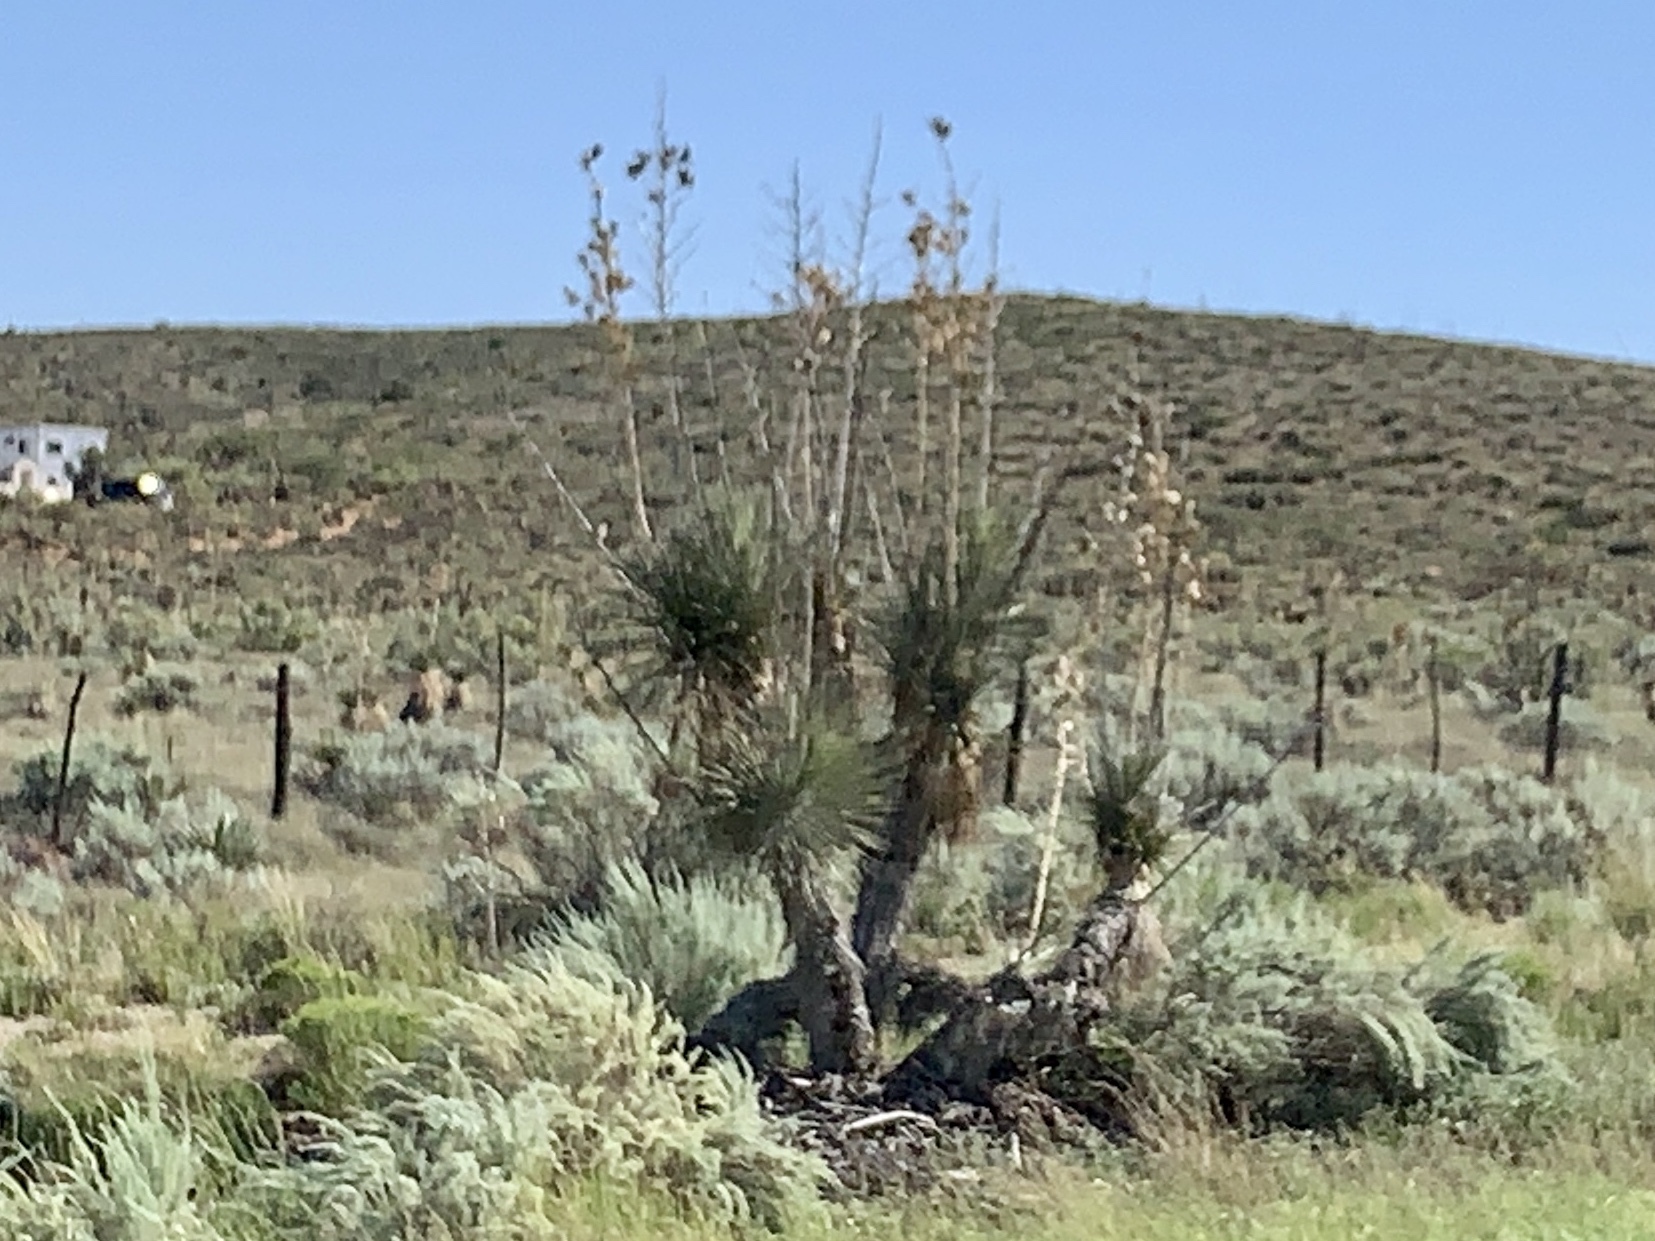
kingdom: Plantae
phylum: Tracheophyta
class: Liliopsida
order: Asparagales
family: Asparagaceae
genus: Yucca
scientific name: Yucca elata
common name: Palmella
